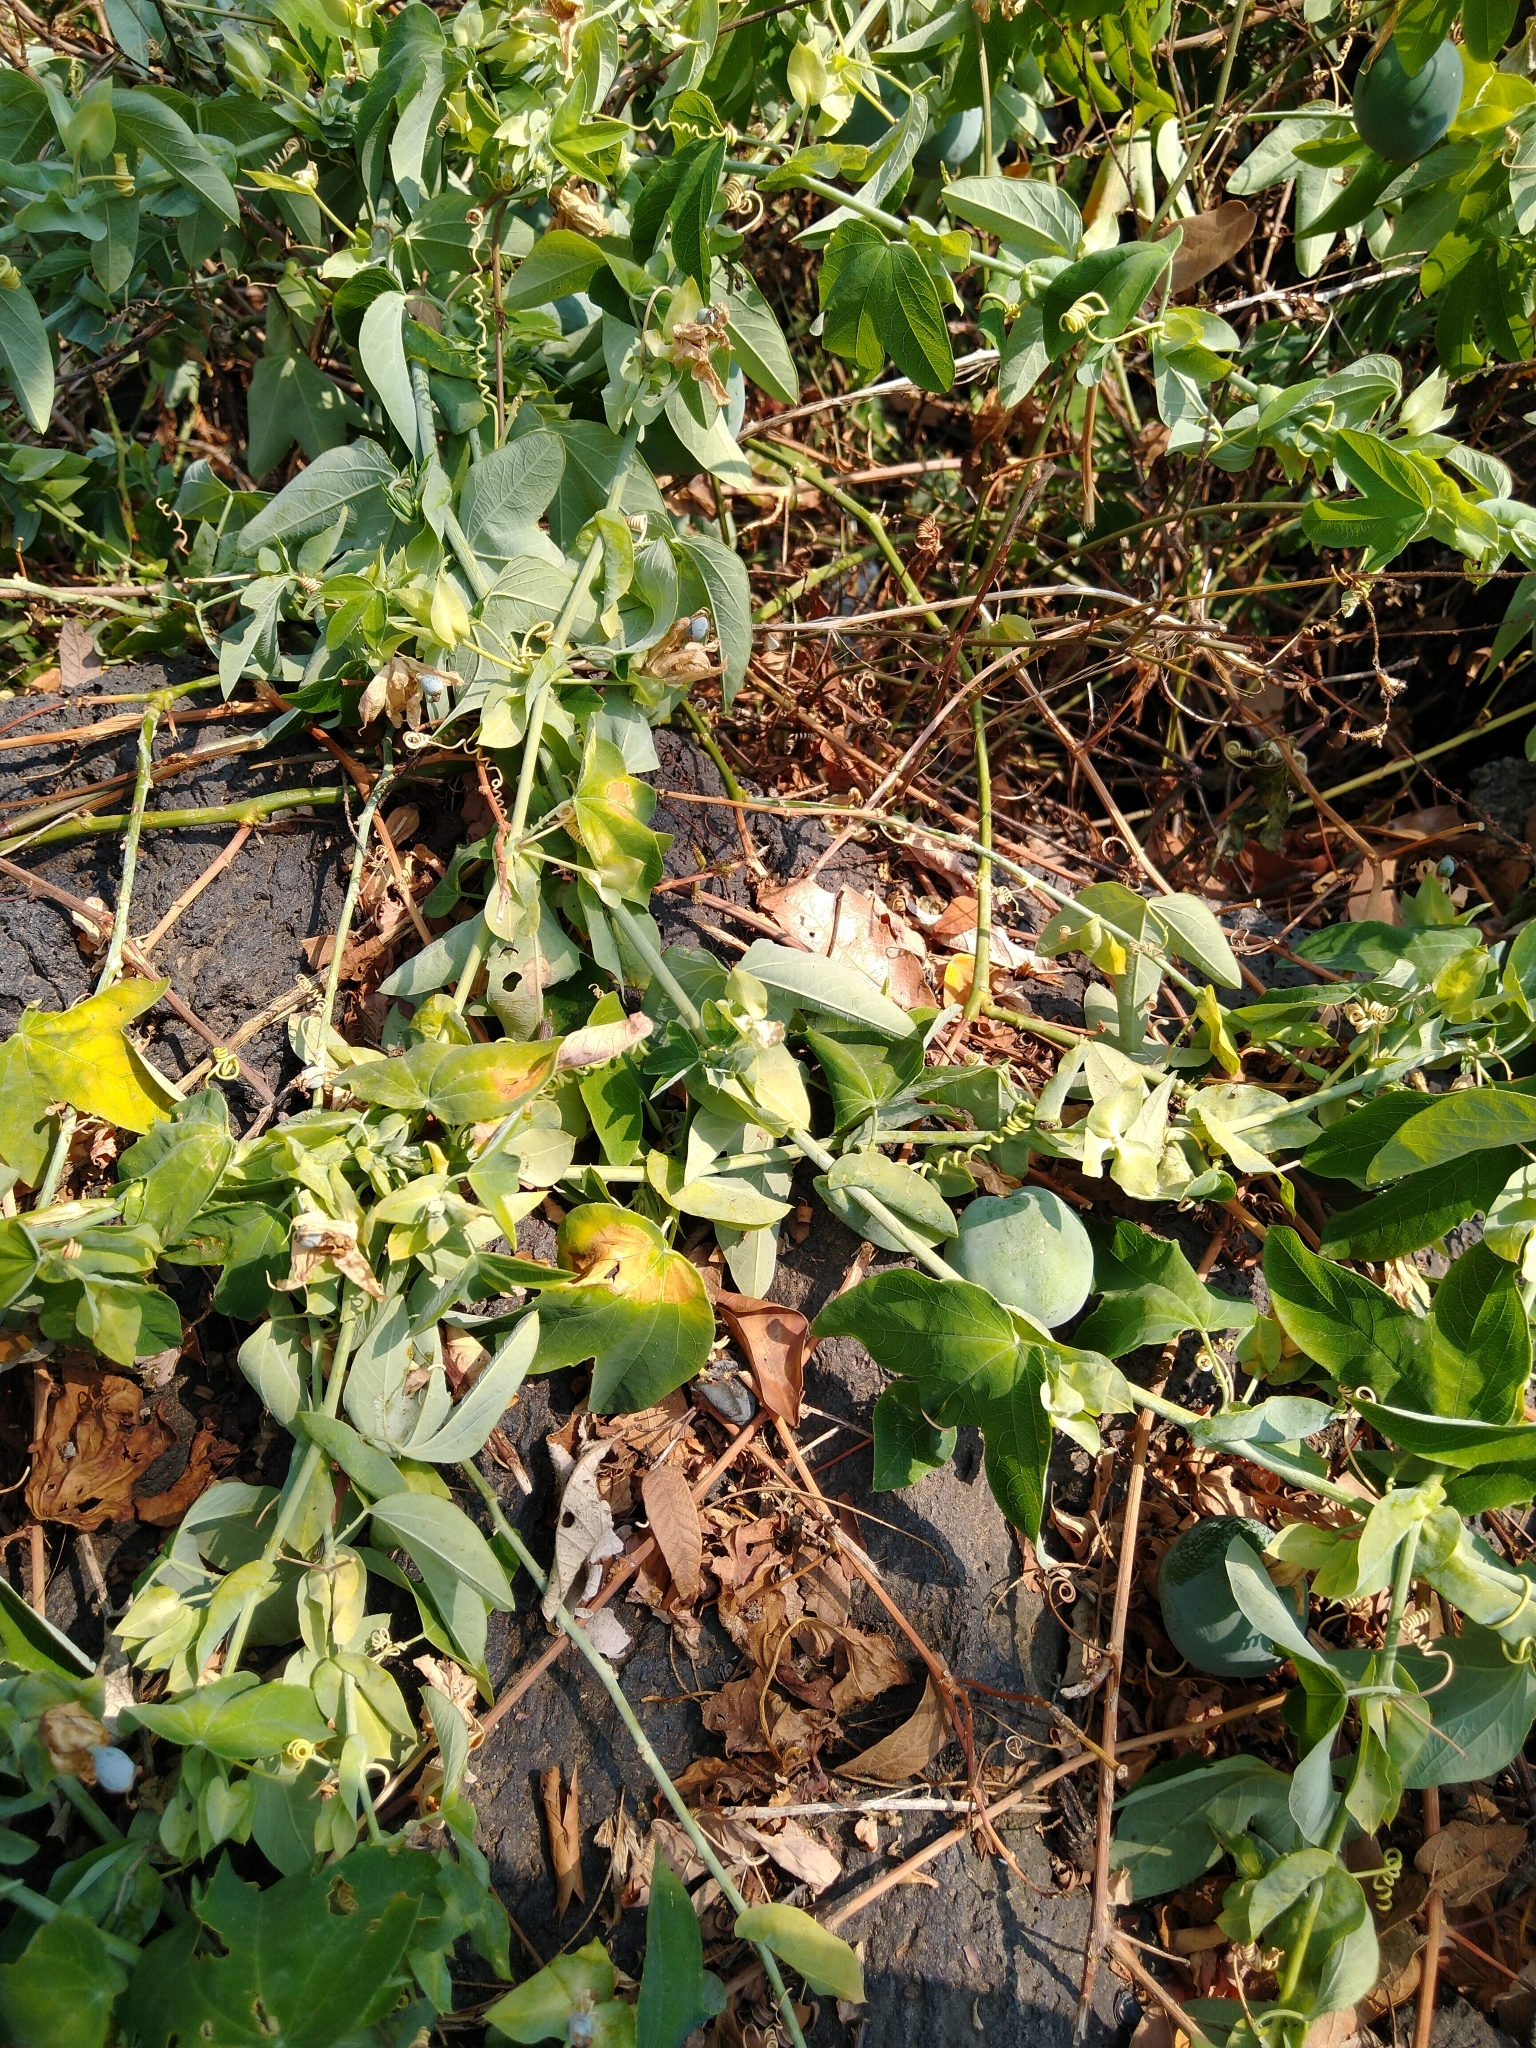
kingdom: Plantae
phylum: Tracheophyta
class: Magnoliopsida
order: Malpighiales
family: Passifloraceae
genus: Passiflora
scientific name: Passiflora subpeltata
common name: White passionflower
